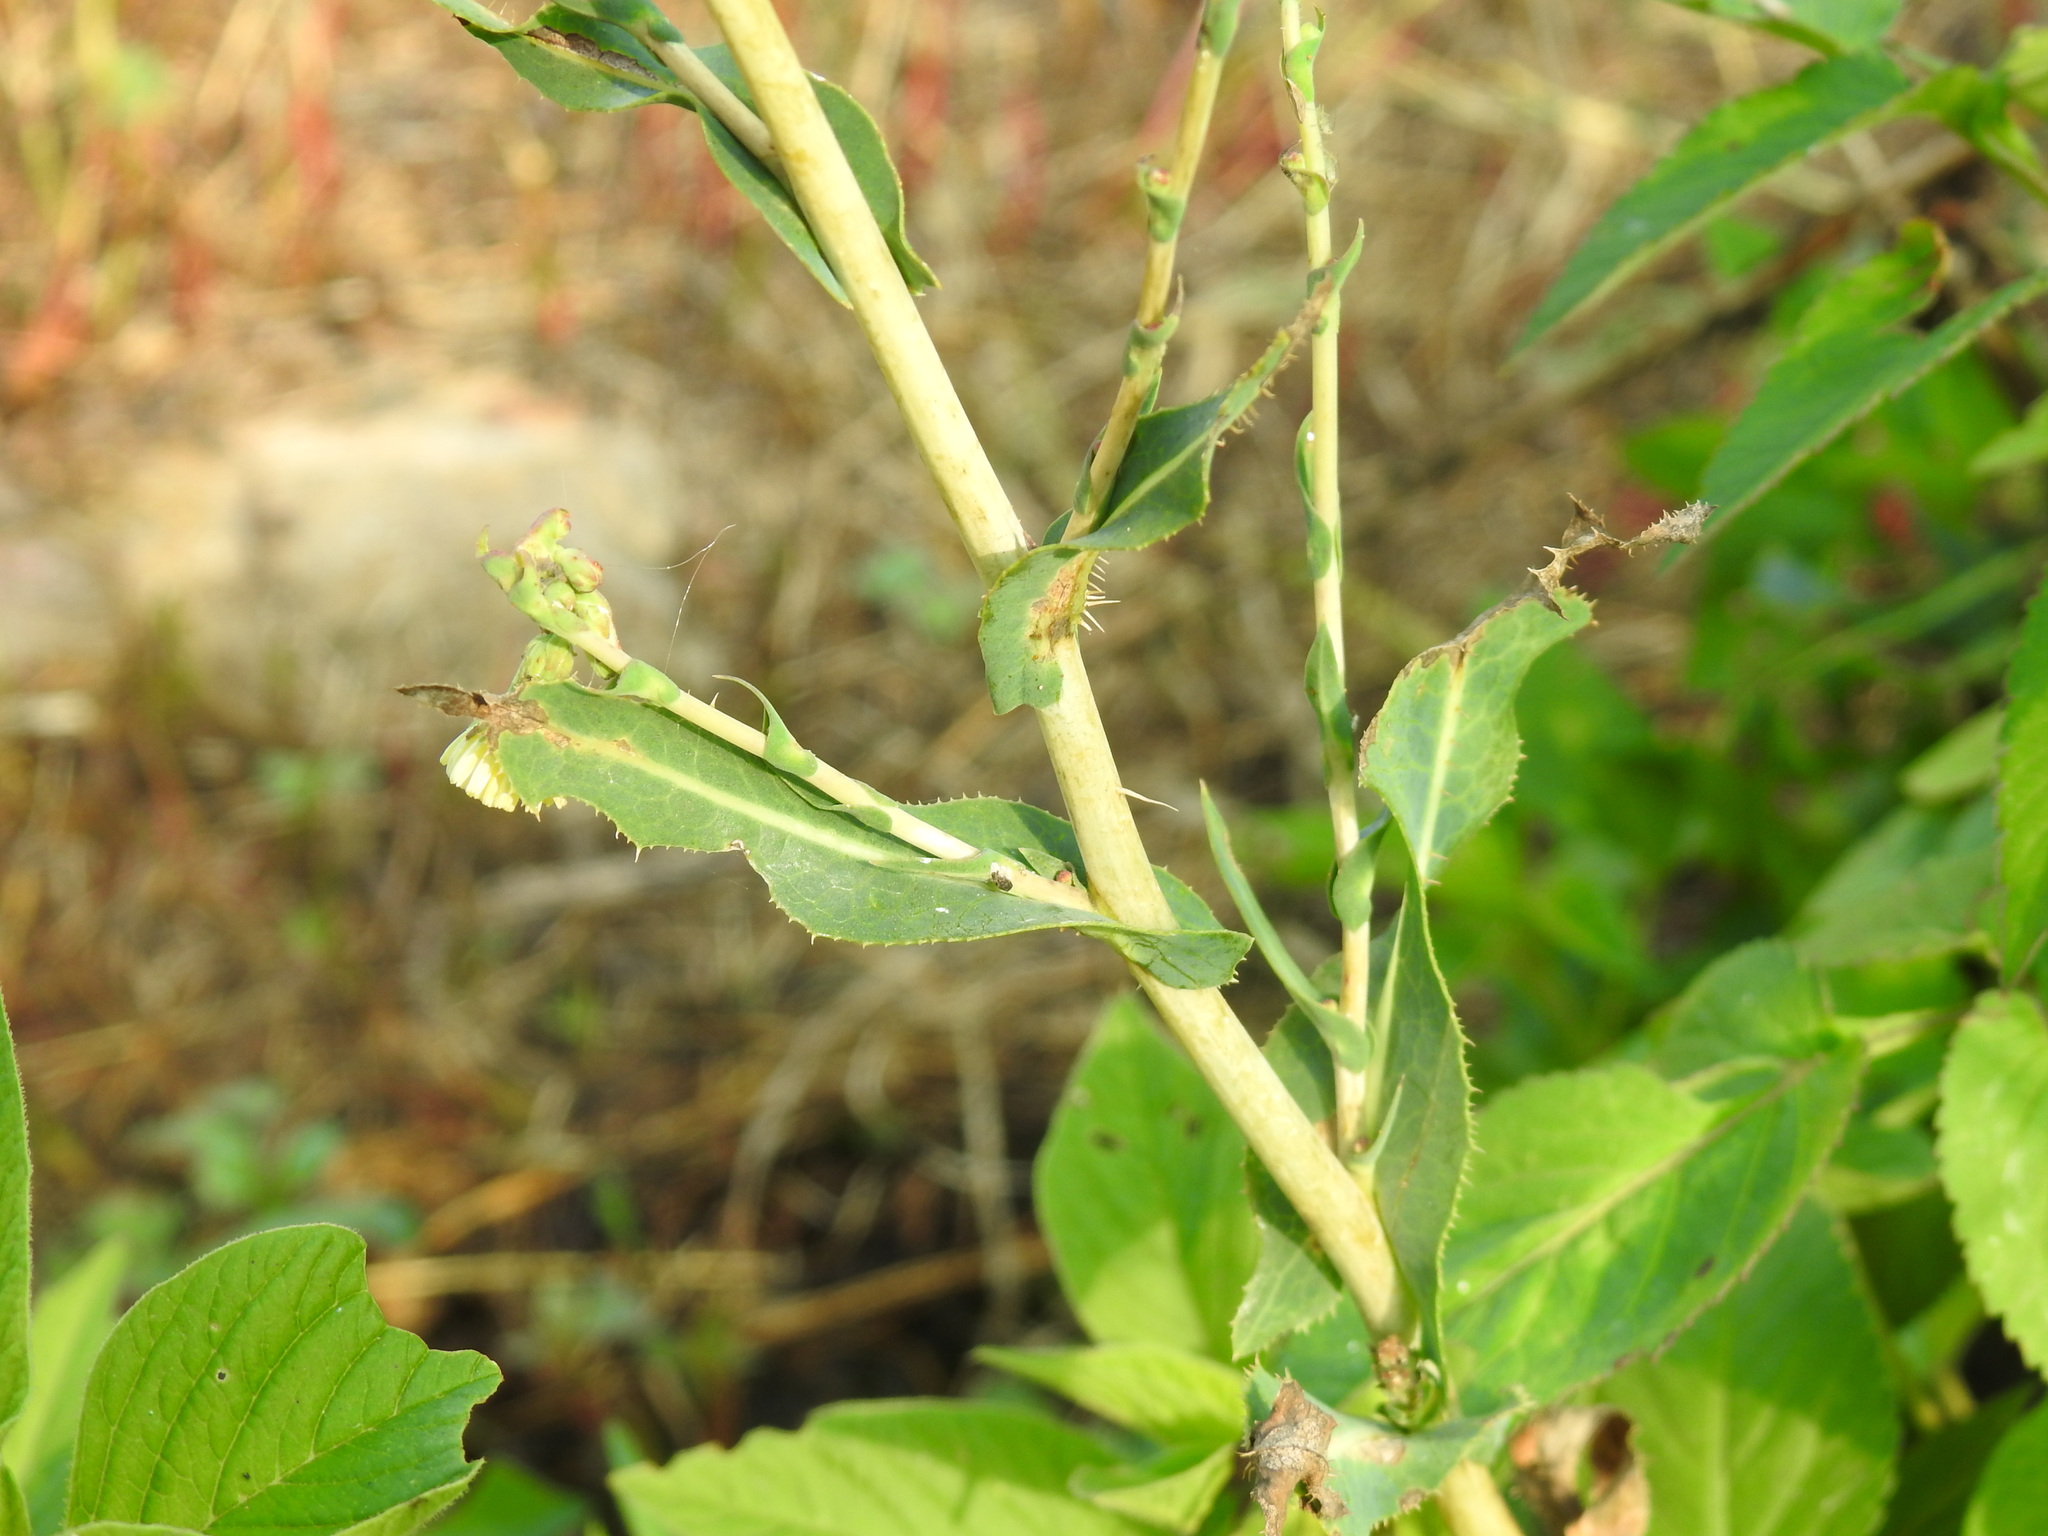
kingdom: Plantae
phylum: Tracheophyta
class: Magnoliopsida
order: Asterales
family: Asteraceae
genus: Lactuca
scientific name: Lactuca serriola
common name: Prickly lettuce
